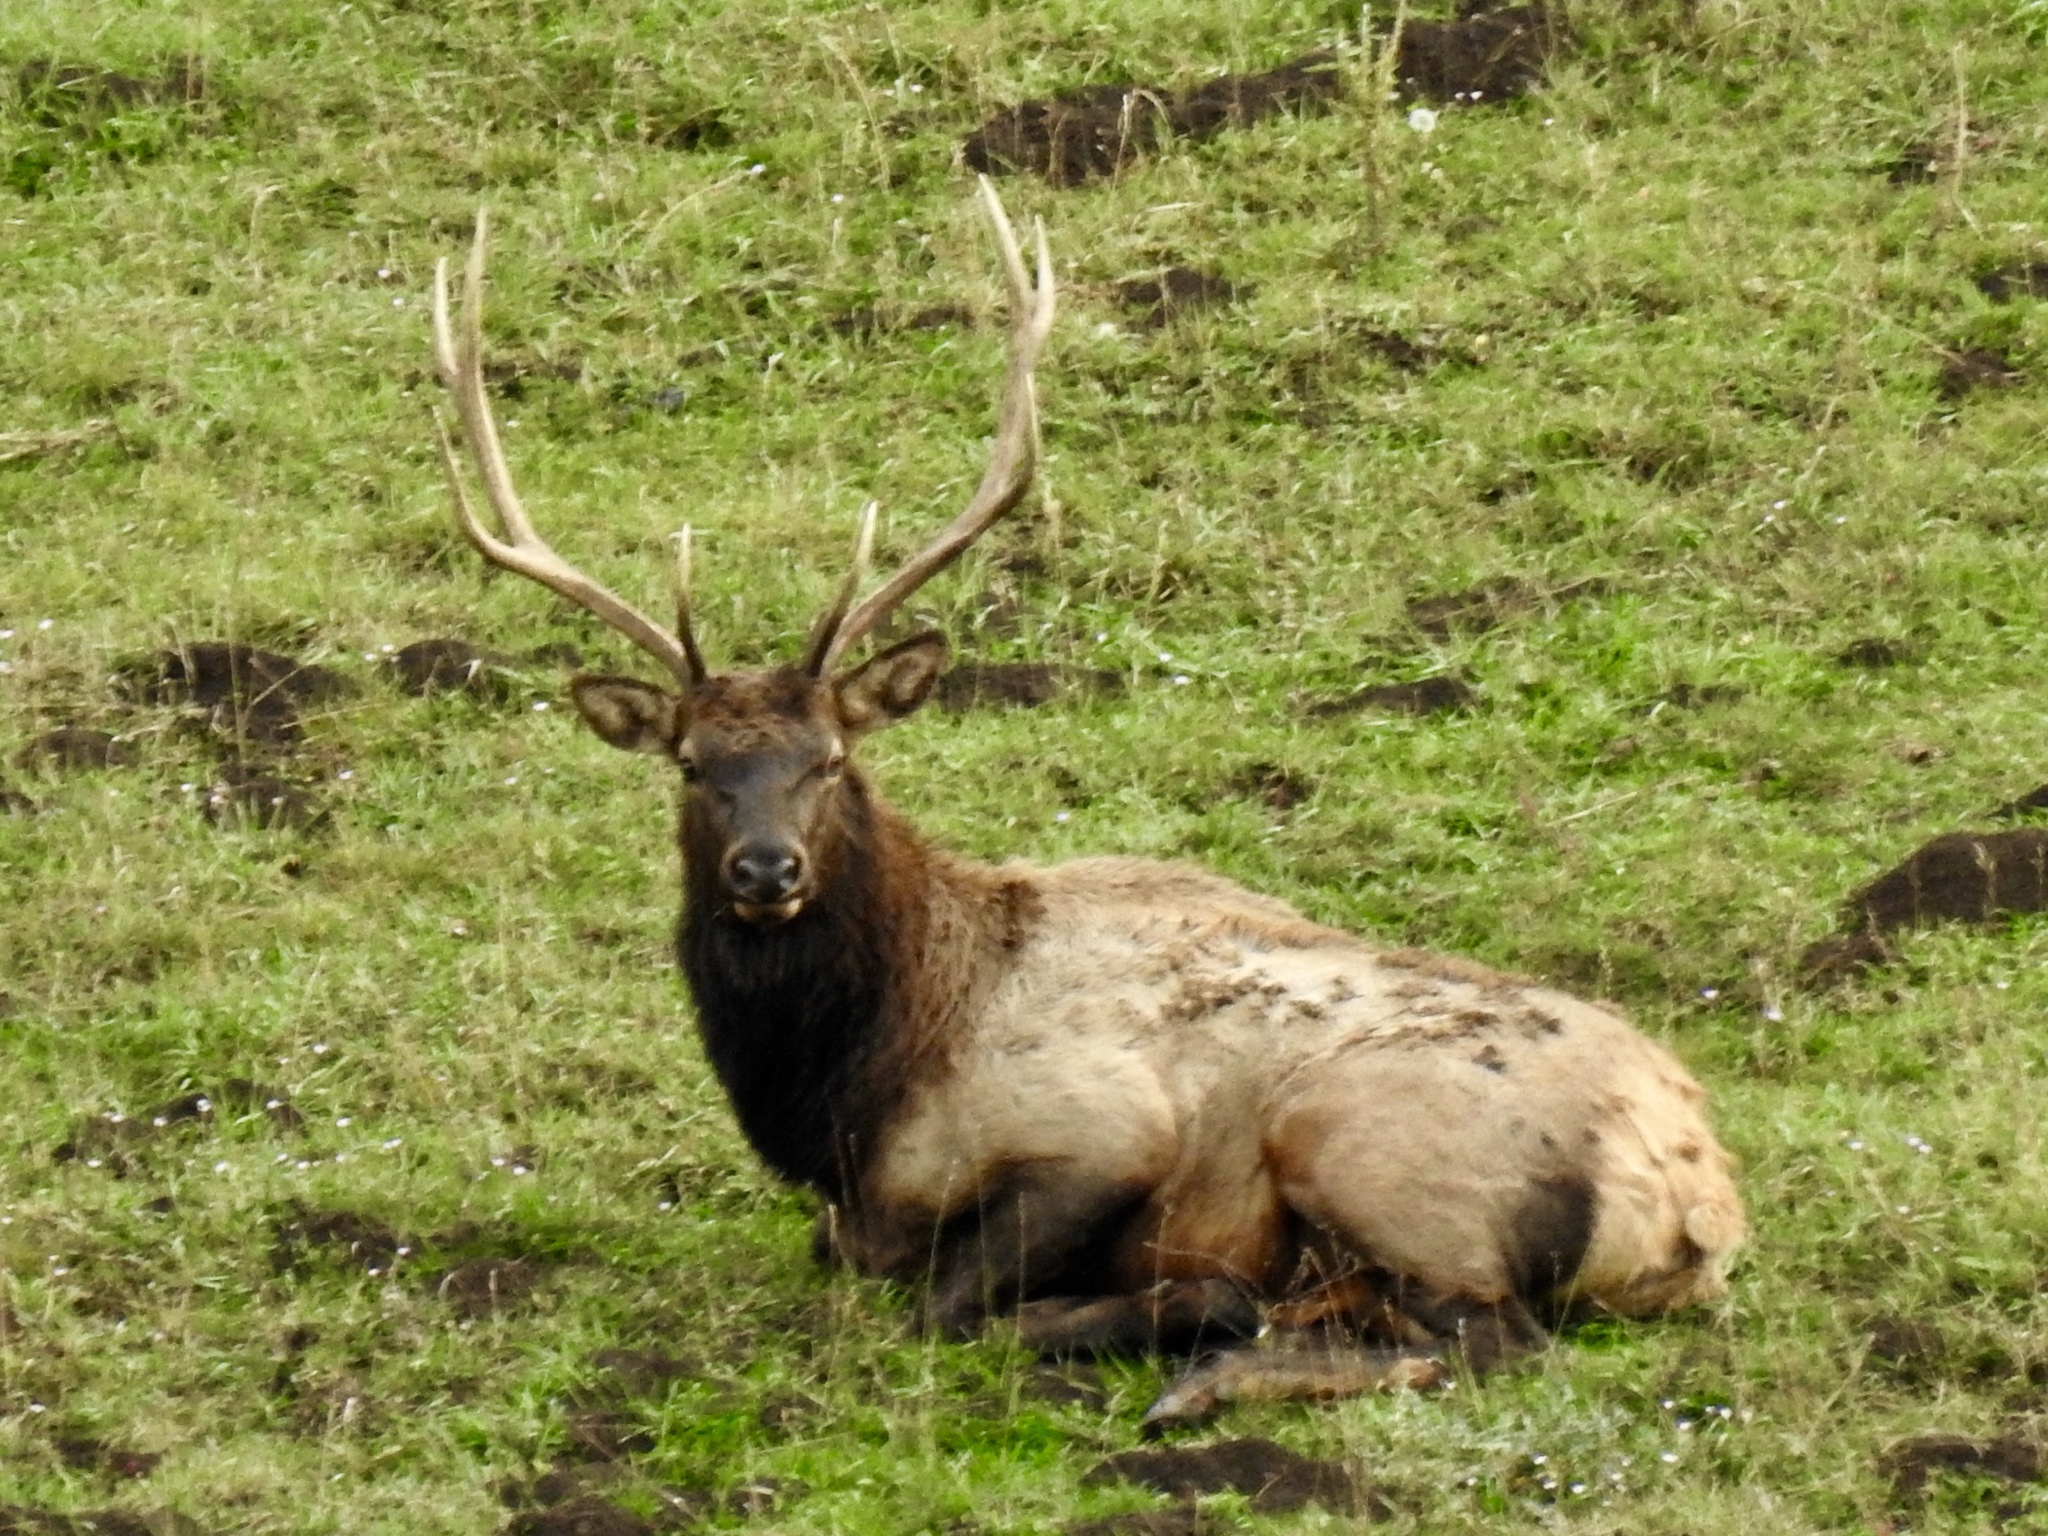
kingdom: Animalia
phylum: Chordata
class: Mammalia
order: Artiodactyla
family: Cervidae
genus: Cervus
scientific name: Cervus elaphus
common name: Red deer
